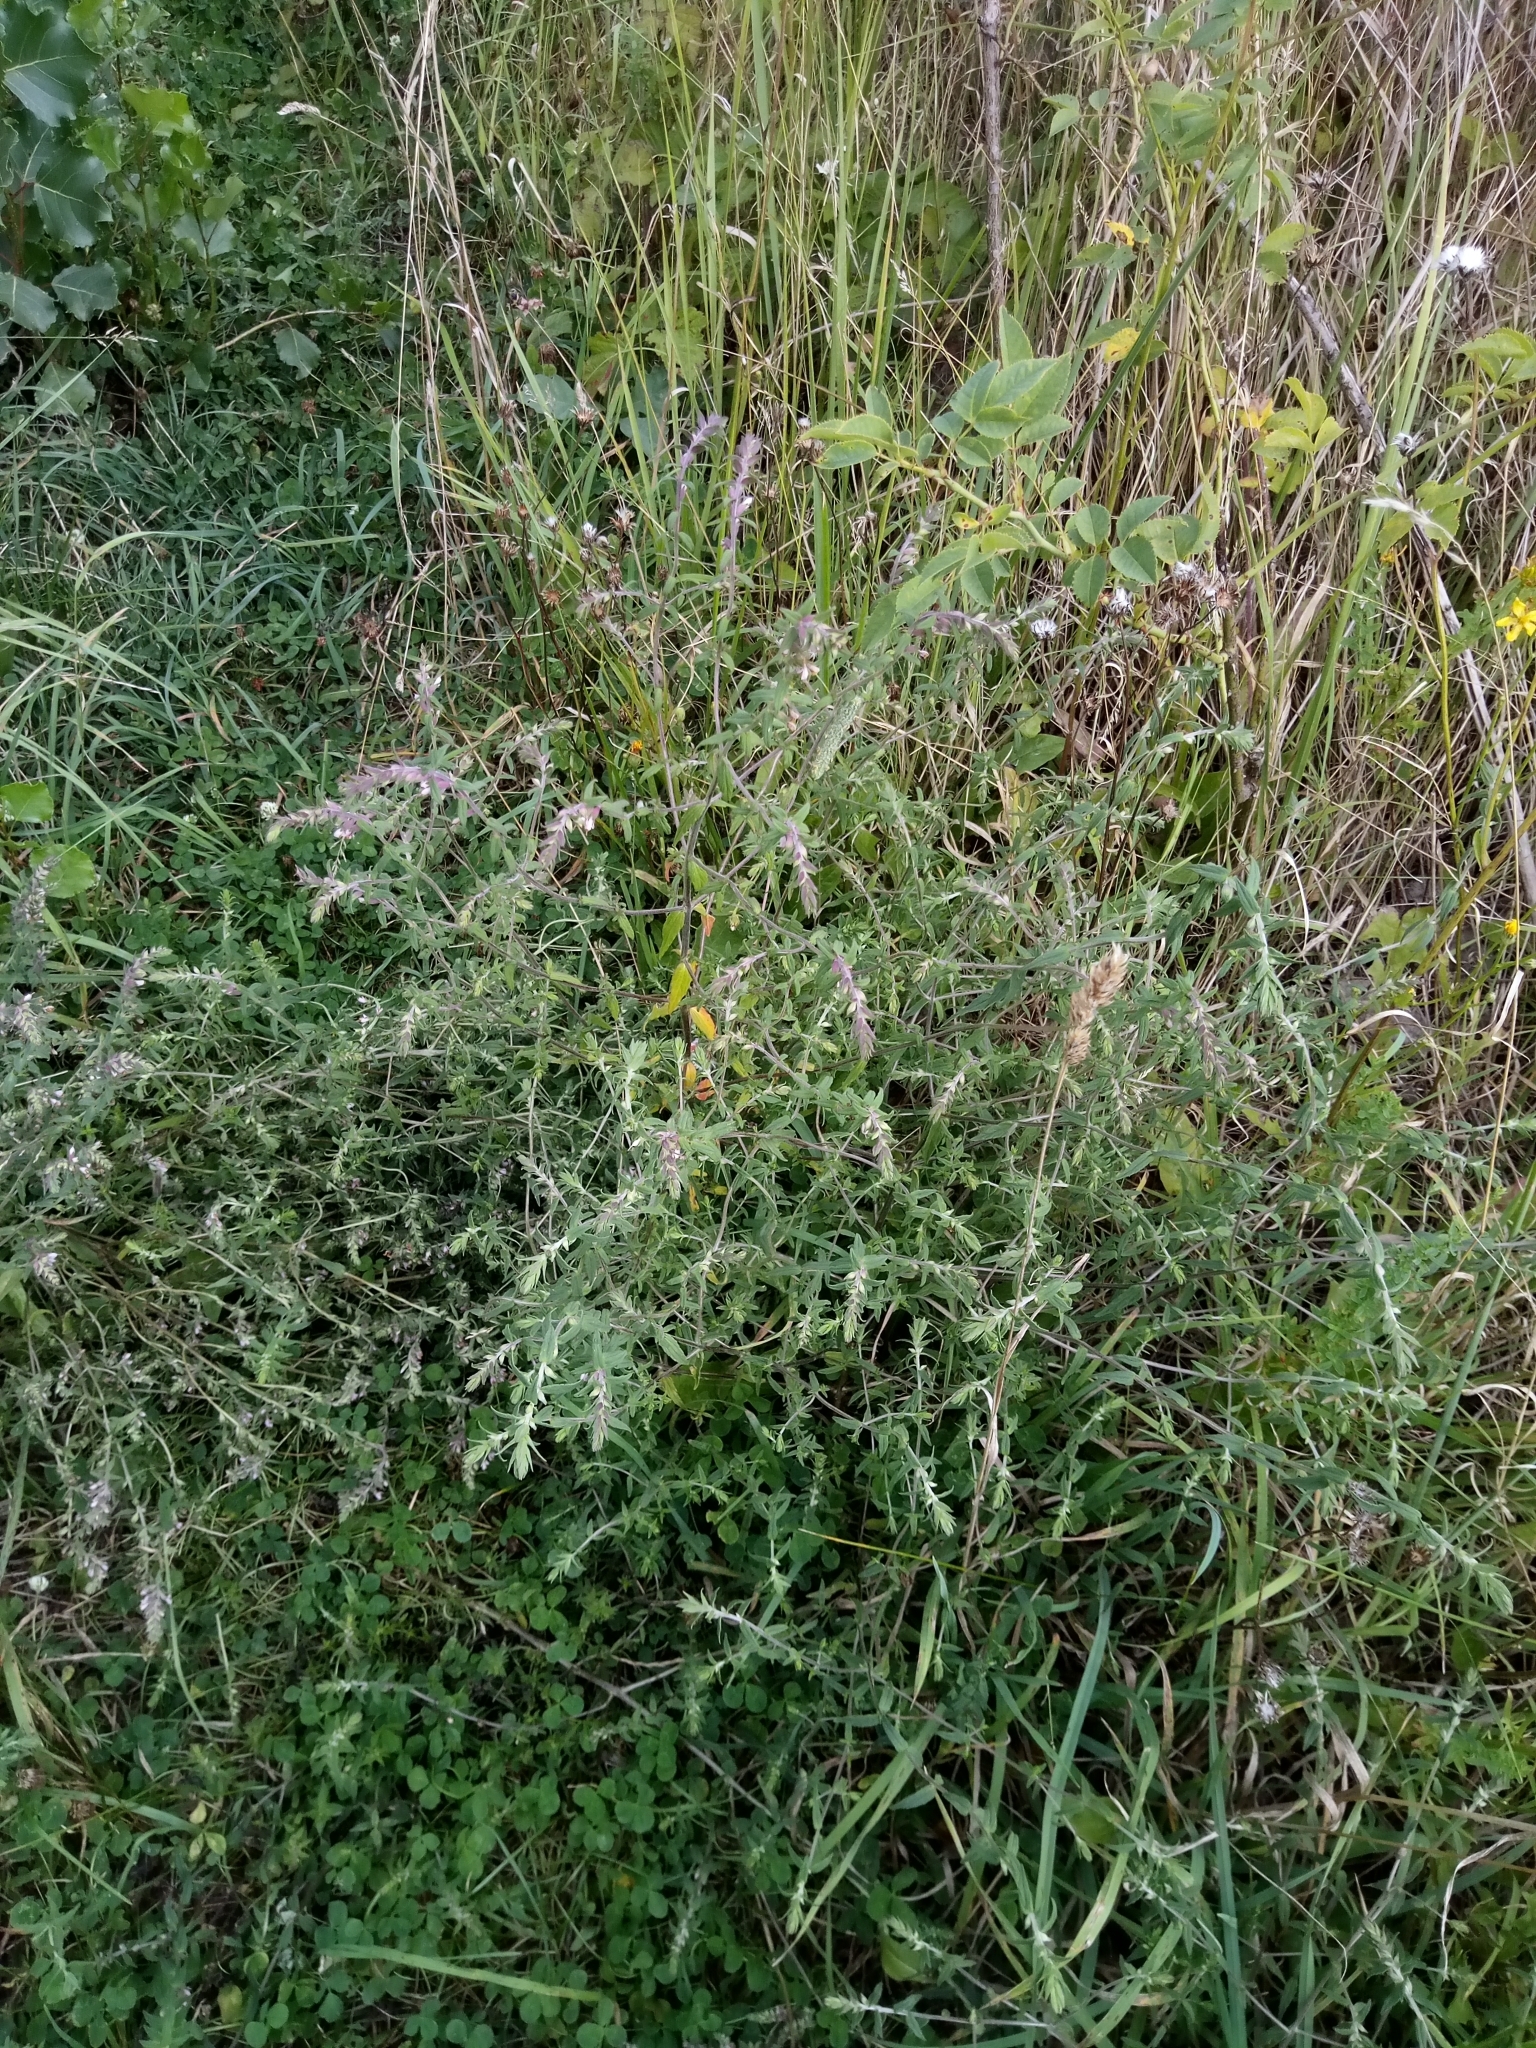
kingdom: Plantae
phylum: Tracheophyta
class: Magnoliopsida
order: Lamiales
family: Orobanchaceae
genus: Odontites
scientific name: Odontites vulgaris
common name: Broomrape
